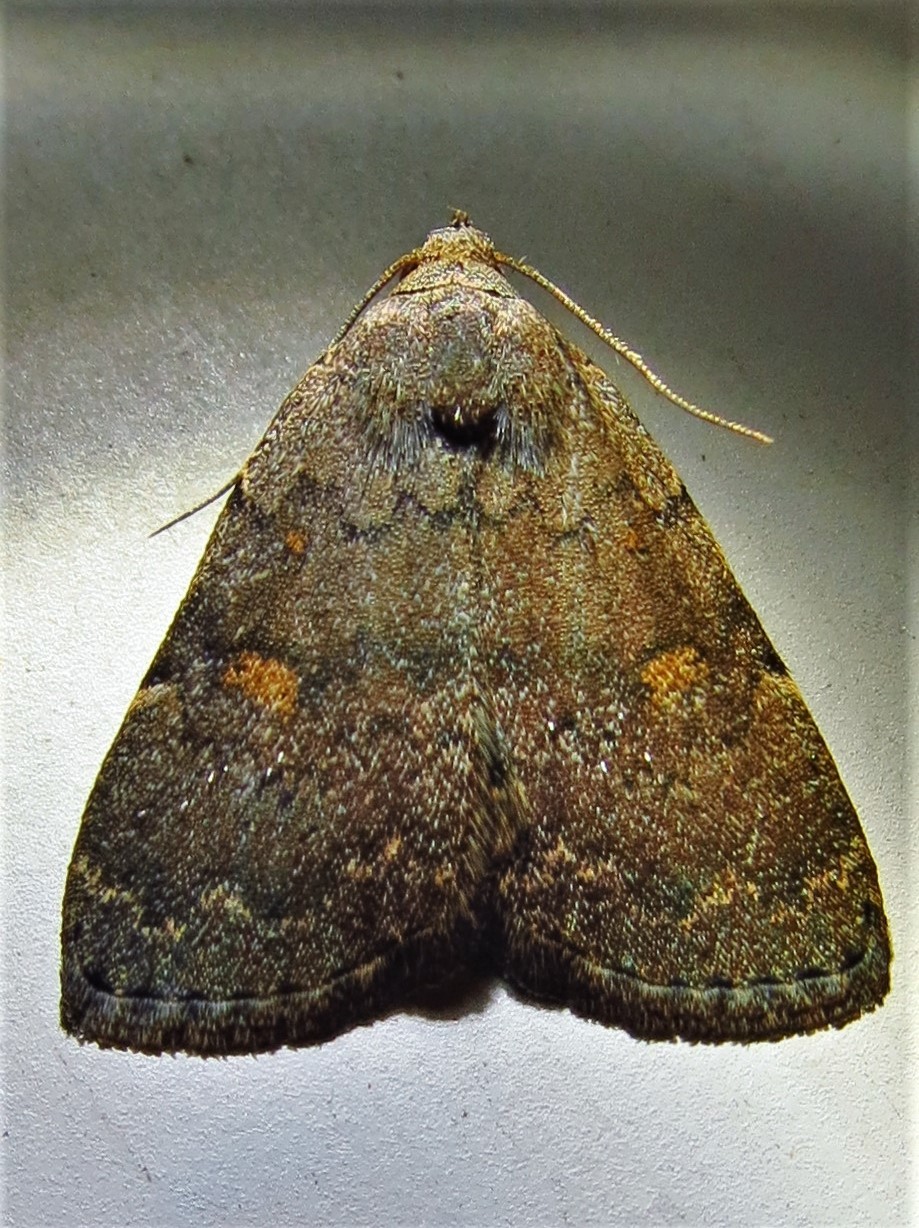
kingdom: Animalia
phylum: Arthropoda
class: Insecta
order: Lepidoptera
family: Erebidae
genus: Idia
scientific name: Idia aemula
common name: Common idia moth
